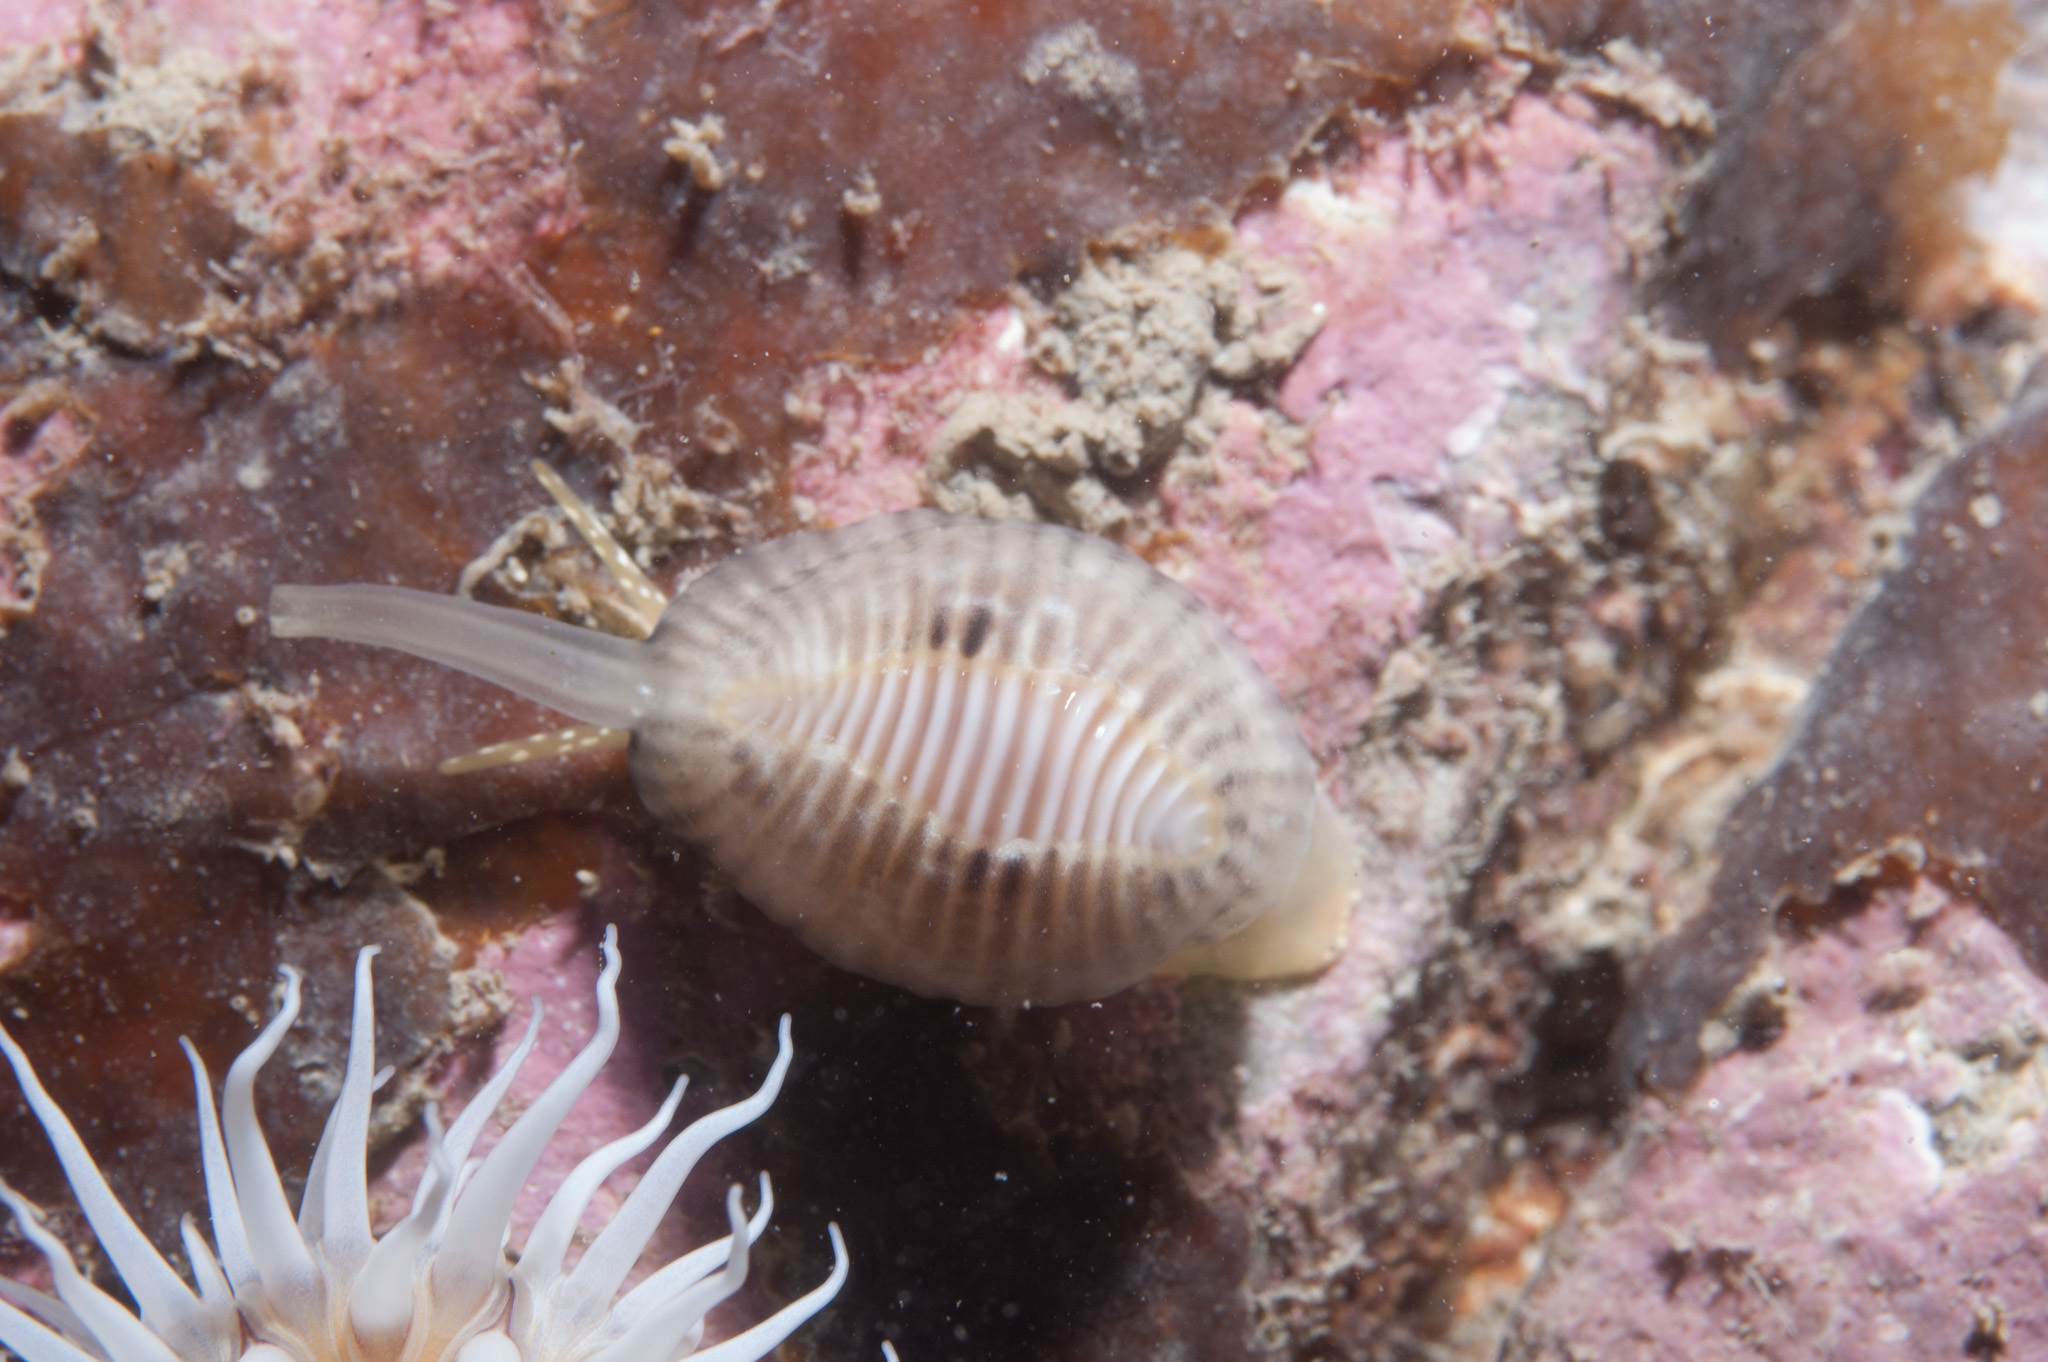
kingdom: Animalia
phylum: Mollusca
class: Gastropoda
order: Littorinimorpha
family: Triviidae
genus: Trivia
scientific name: Trivia arctica
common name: Arctic cowrie
